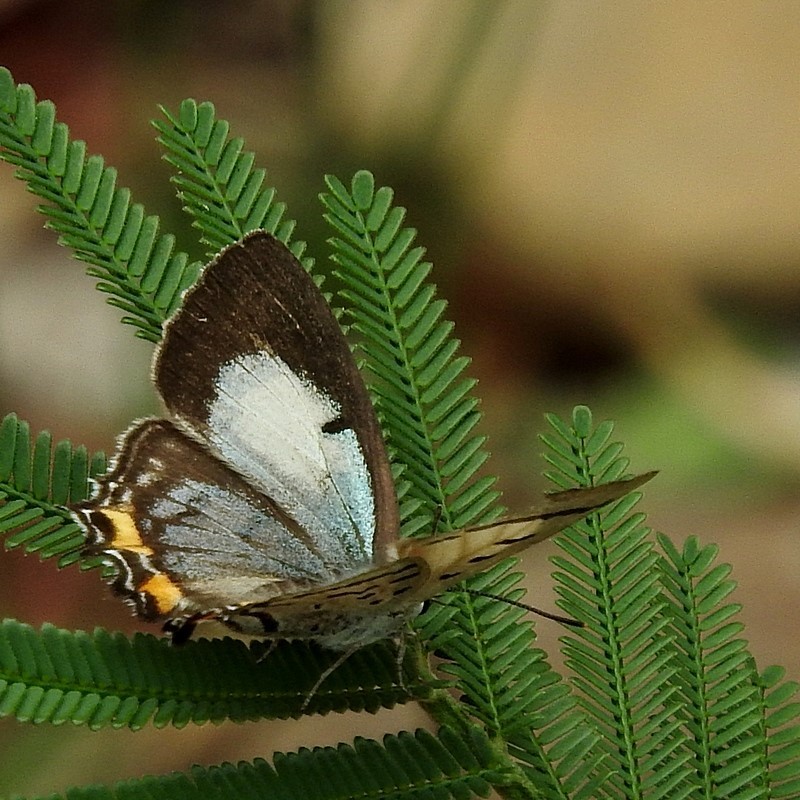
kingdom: Animalia
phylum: Arthropoda
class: Insecta
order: Lepidoptera
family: Lycaenidae
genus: Jalmenus
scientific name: Jalmenus evagoras
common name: Common imperial blue
